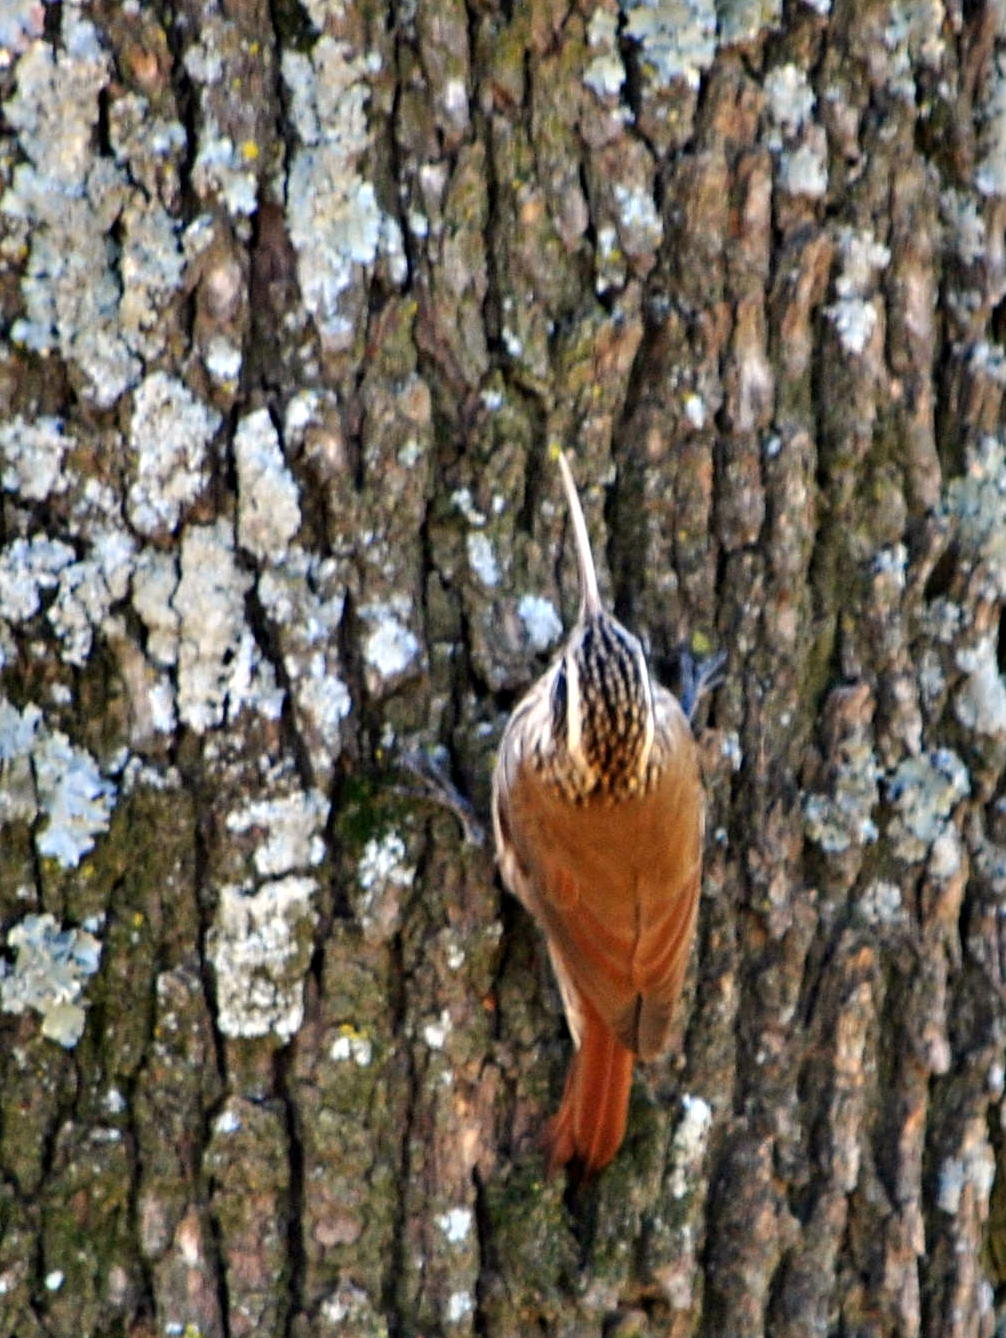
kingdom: Animalia
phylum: Chordata
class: Aves
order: Passeriformes
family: Furnariidae
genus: Lepidocolaptes
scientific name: Lepidocolaptes angustirostris
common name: Narrow-billed woodcreeper
